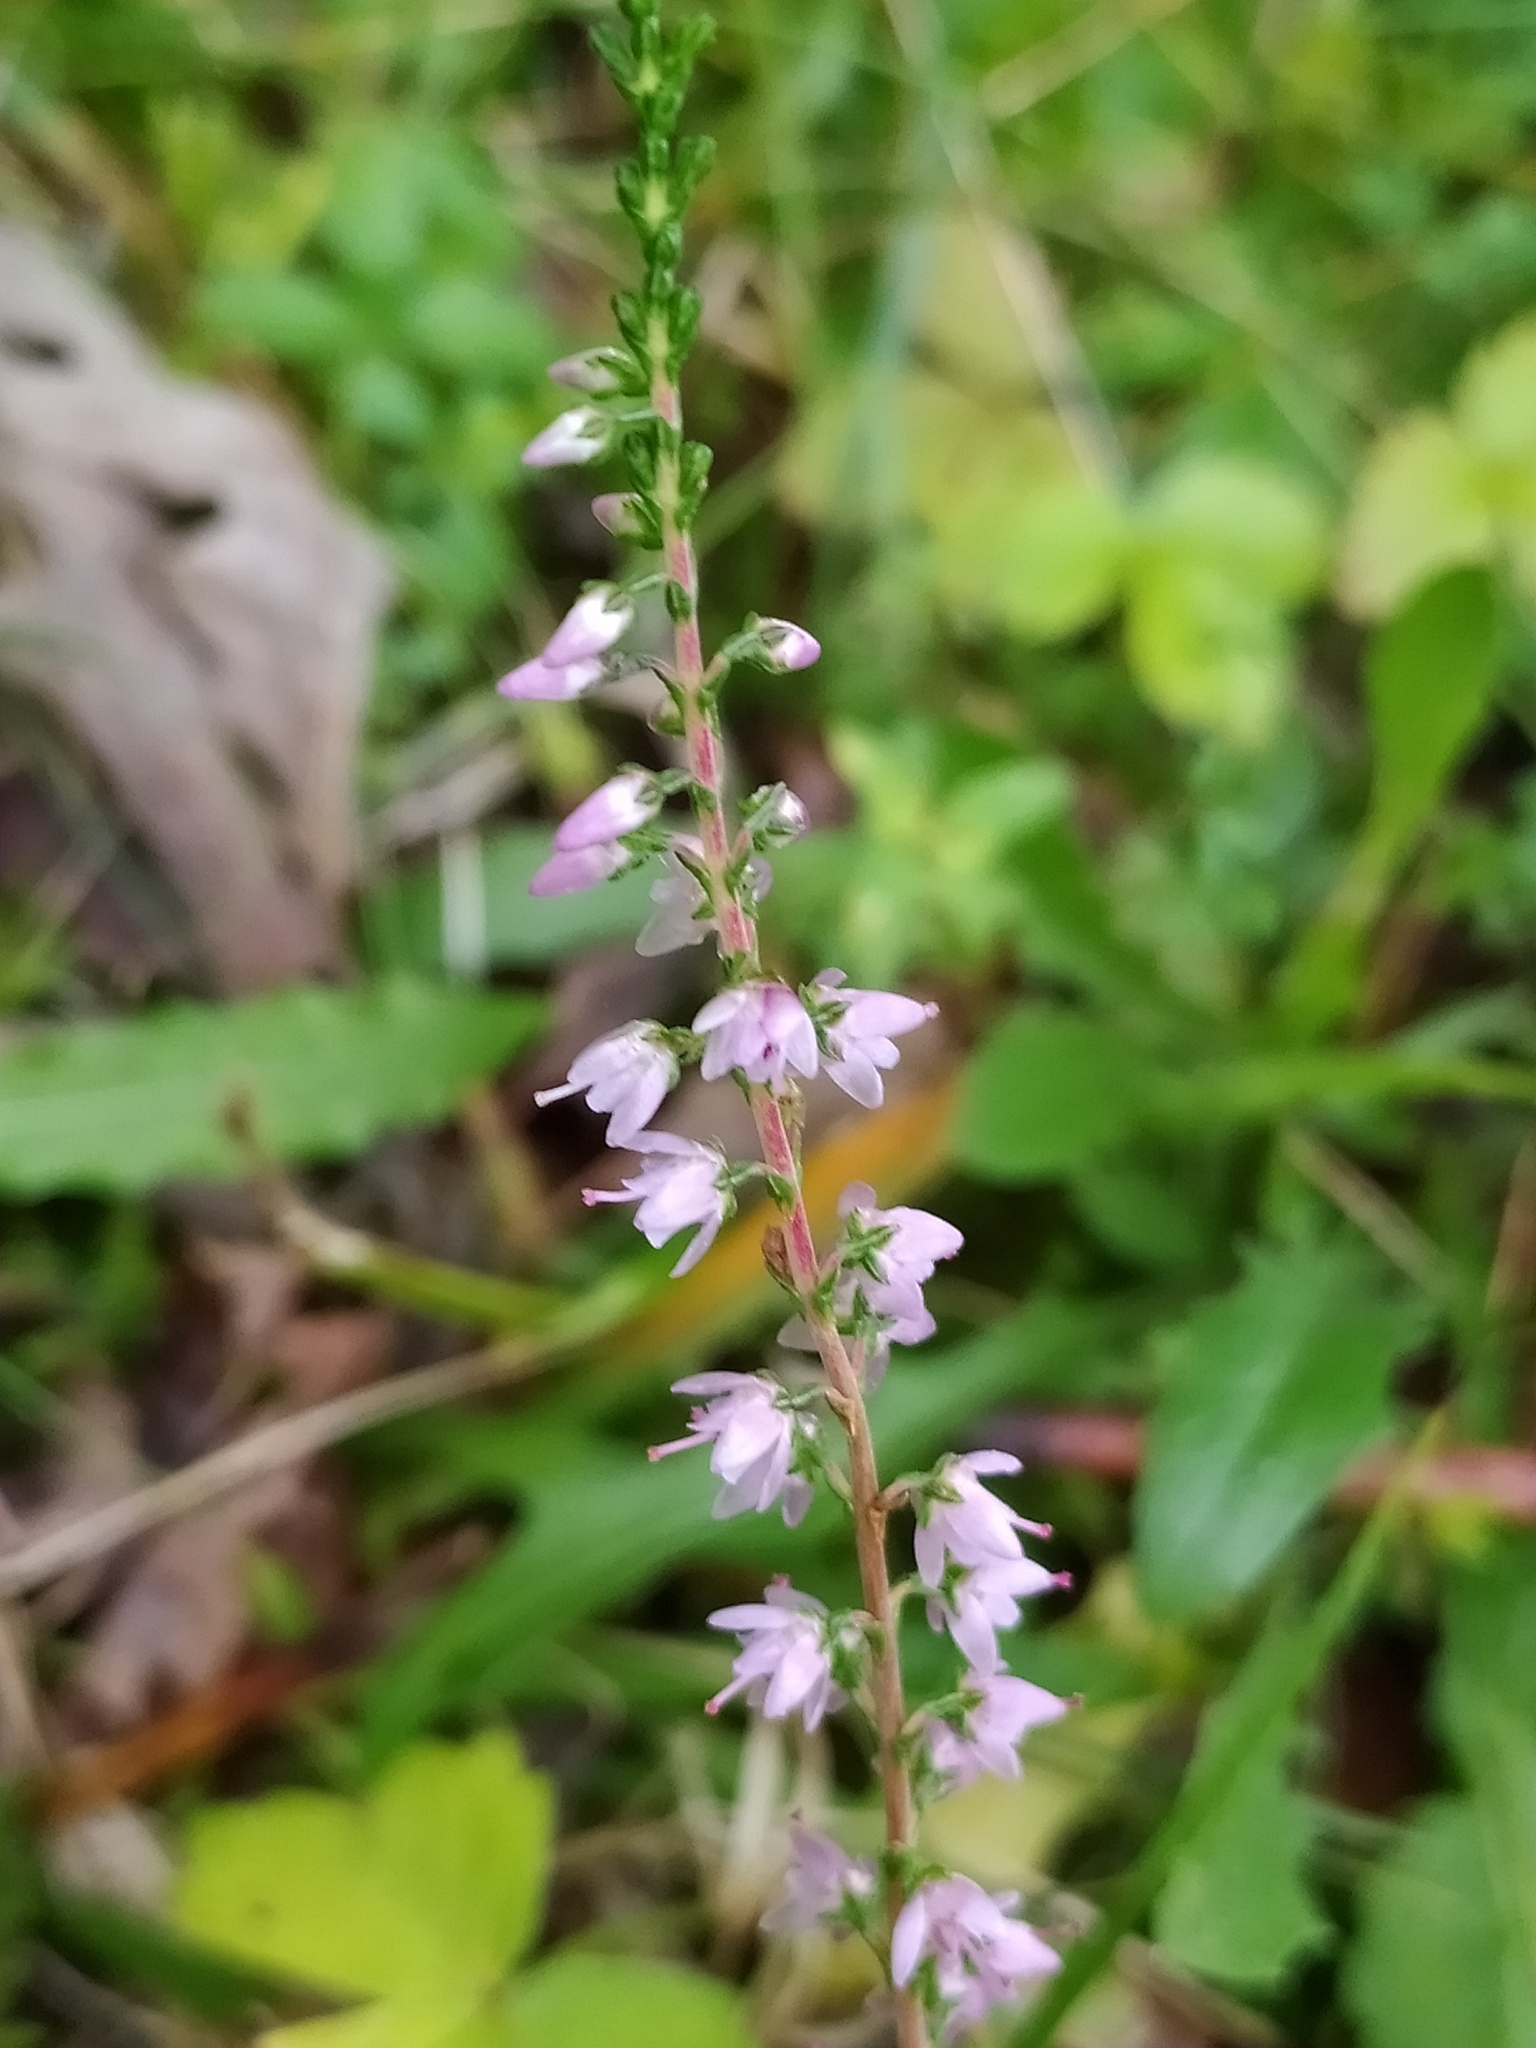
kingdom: Plantae
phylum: Tracheophyta
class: Magnoliopsida
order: Ericales
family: Ericaceae
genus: Calluna
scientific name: Calluna vulgaris
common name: Heather
